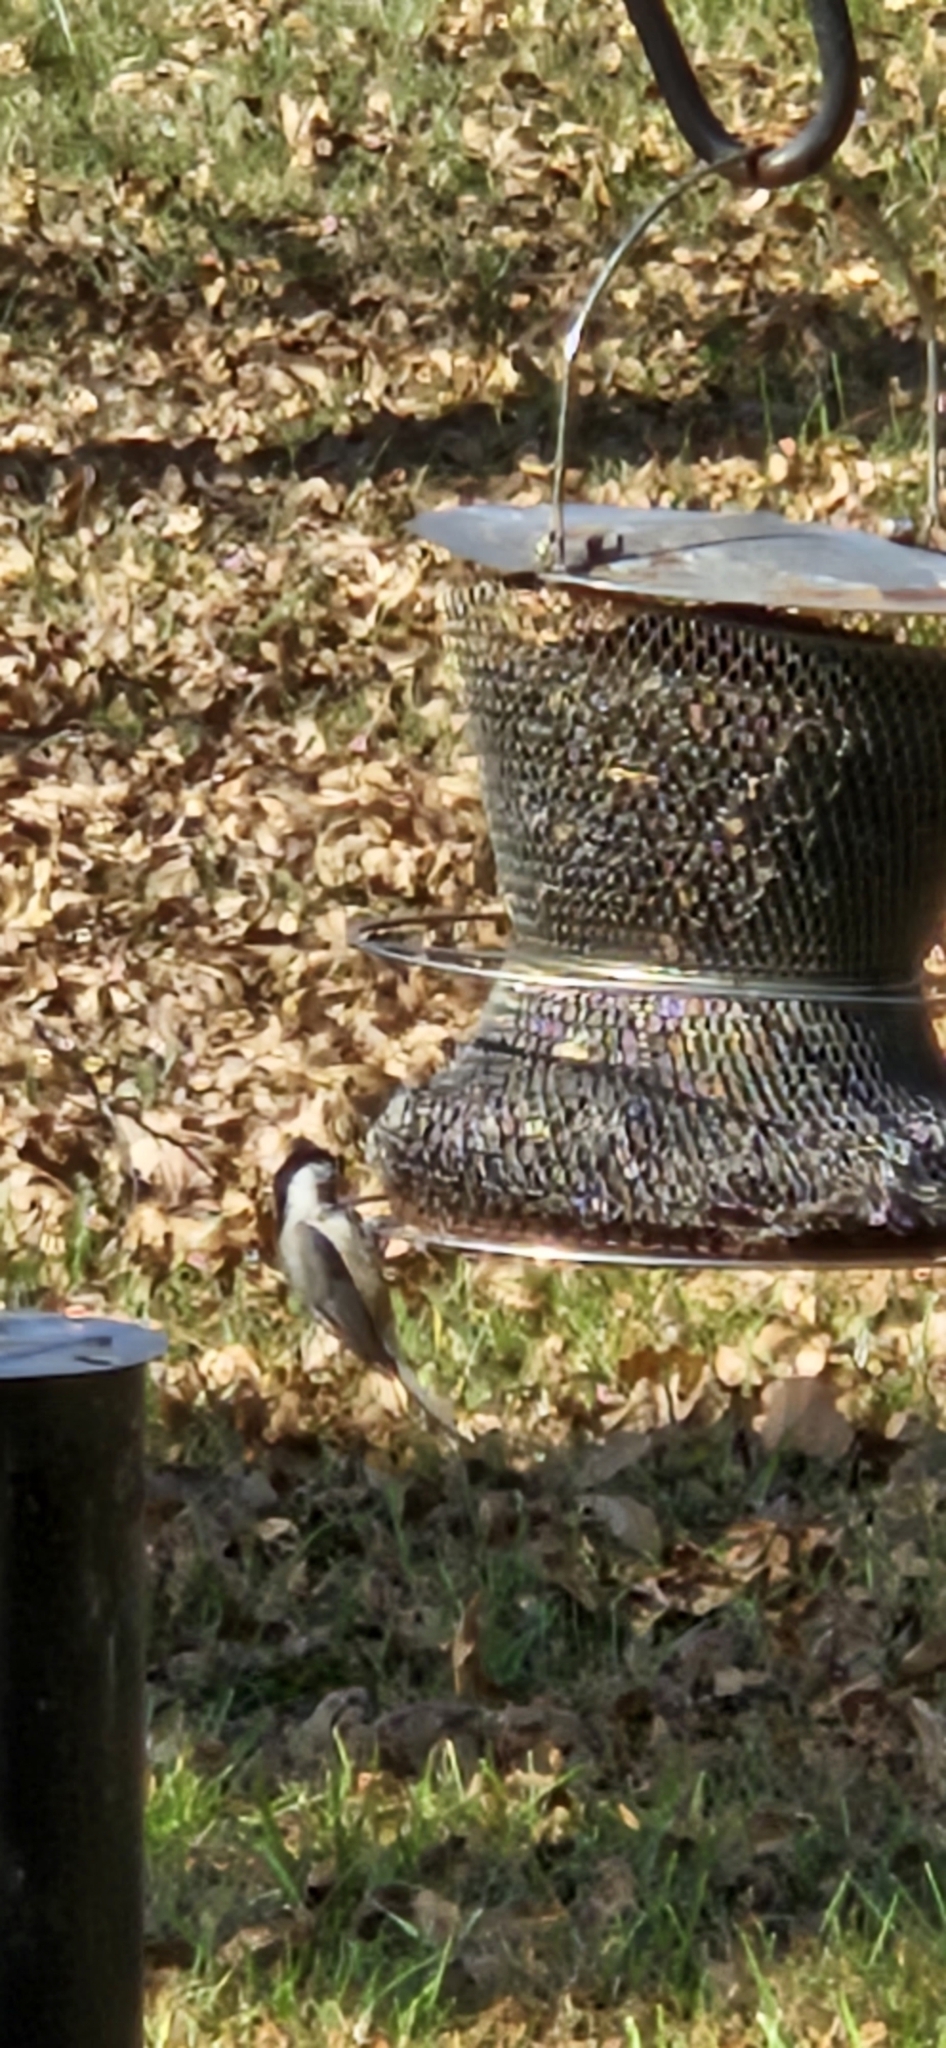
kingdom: Animalia
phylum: Chordata
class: Aves
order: Passeriformes
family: Paridae
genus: Poecile
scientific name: Poecile atricapillus
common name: Black-capped chickadee
